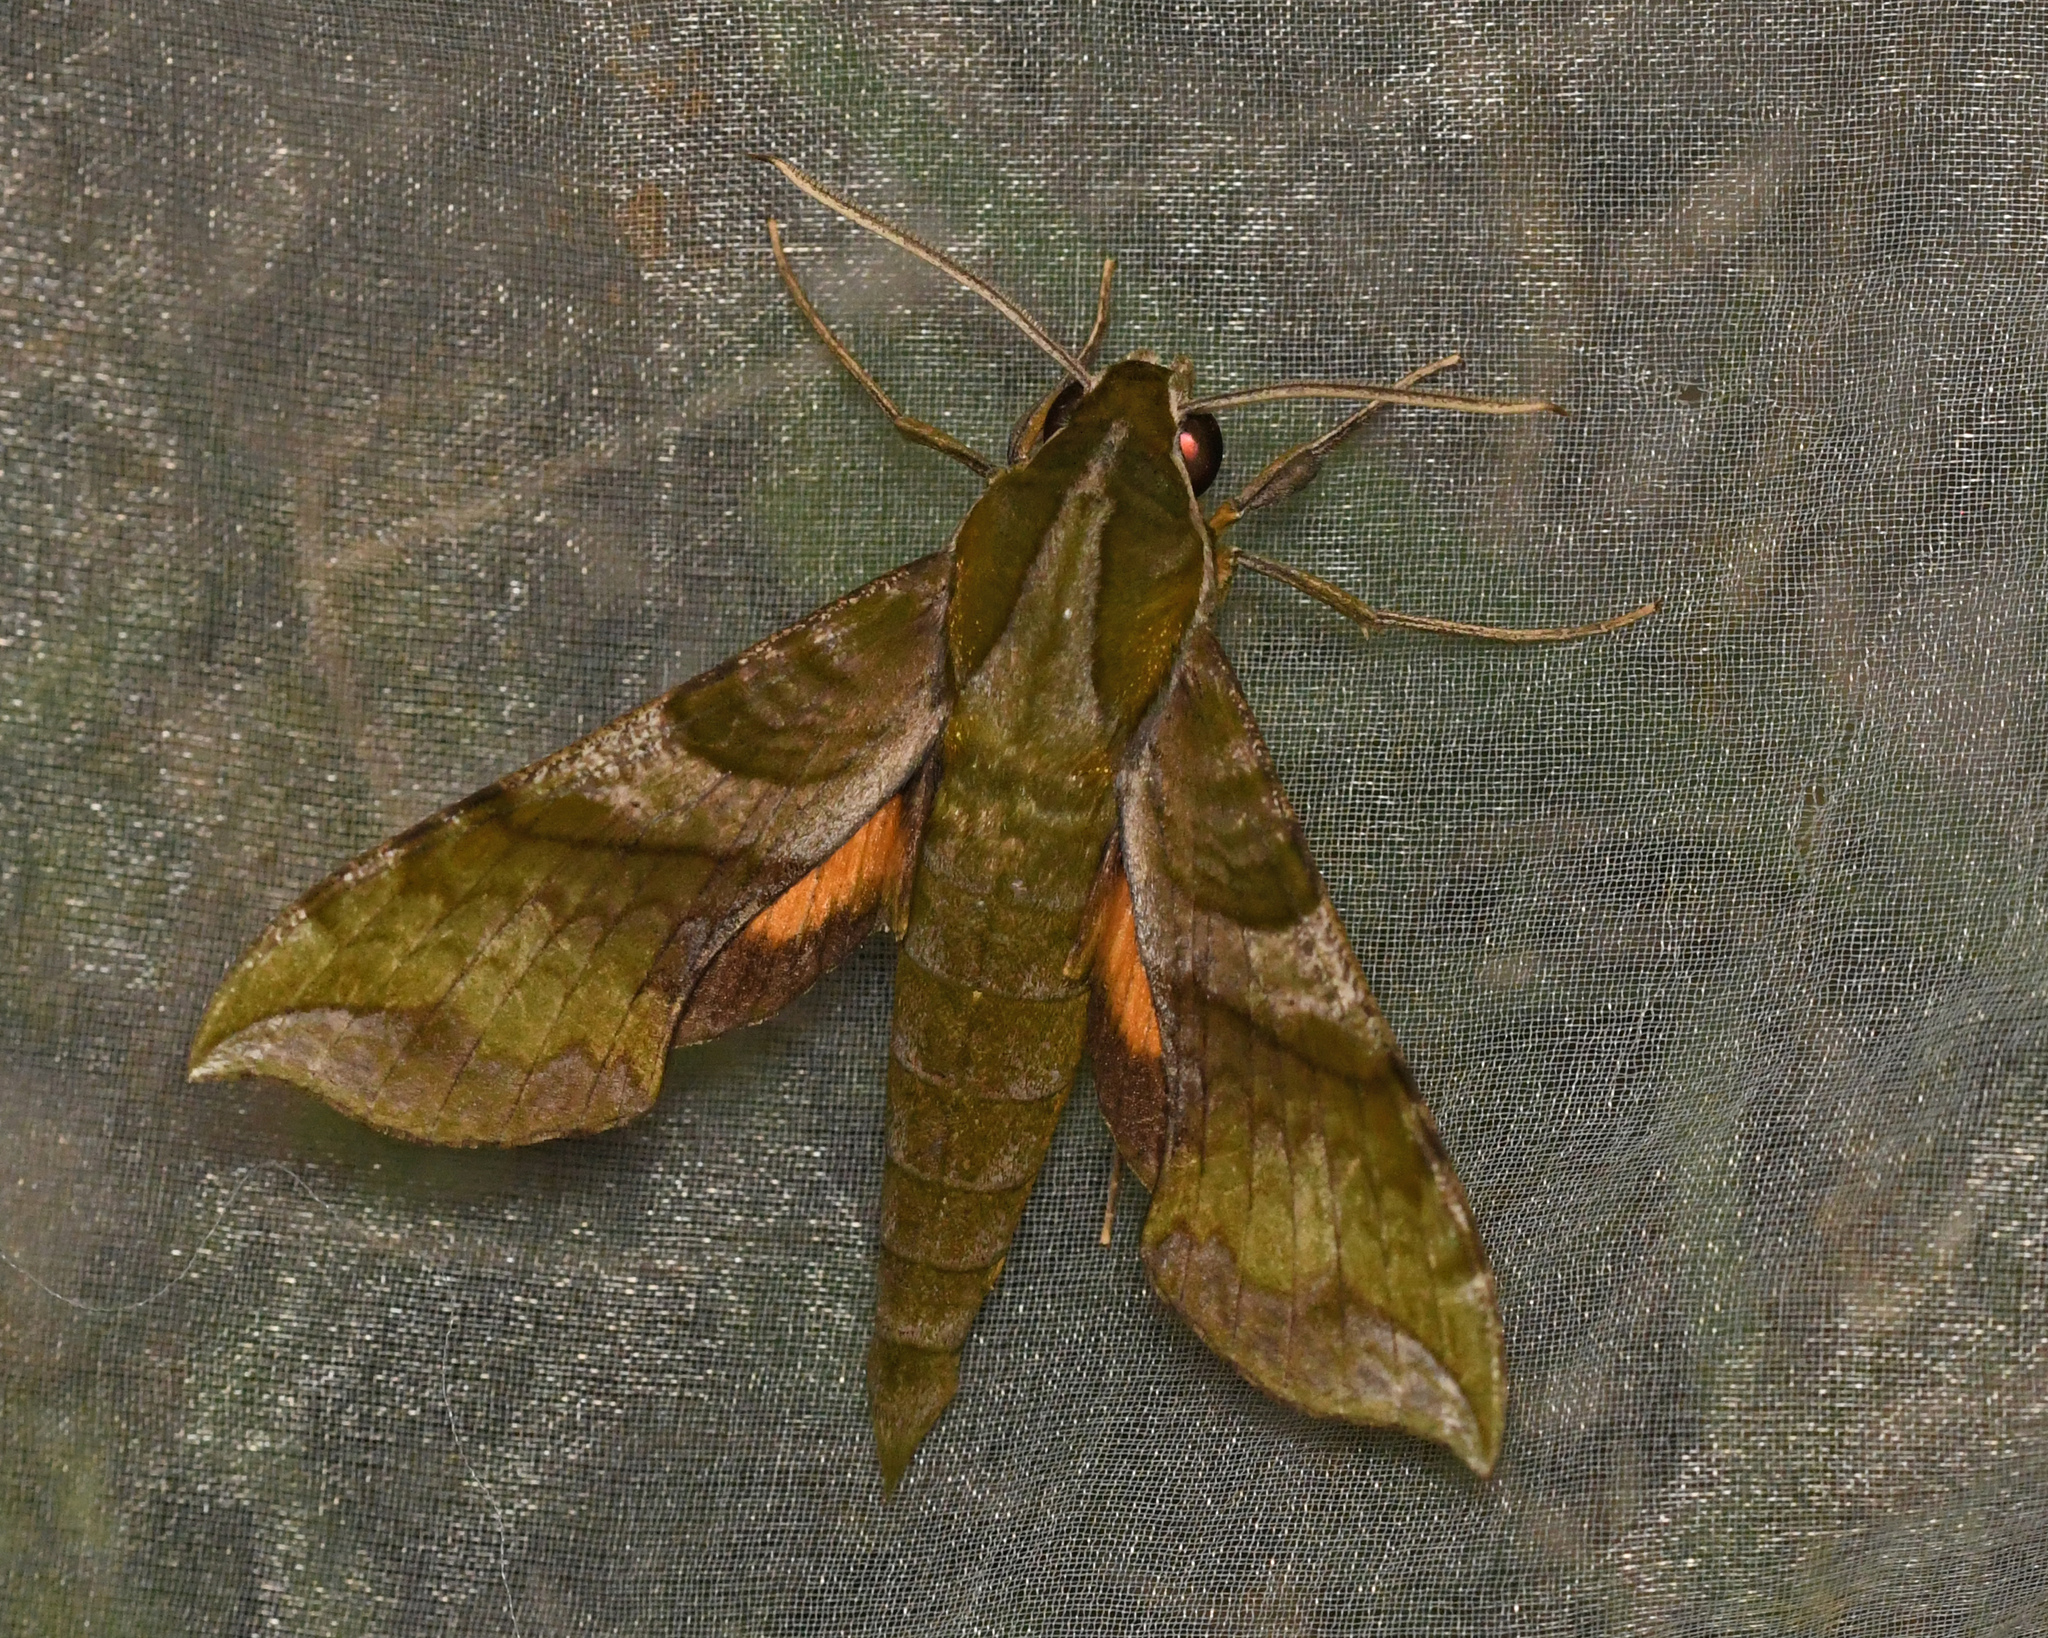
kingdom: Animalia
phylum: Arthropoda
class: Insecta
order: Lepidoptera
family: Sphingidae
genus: Xylophanes
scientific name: Xylophanes pluto
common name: Pluto sphinx
